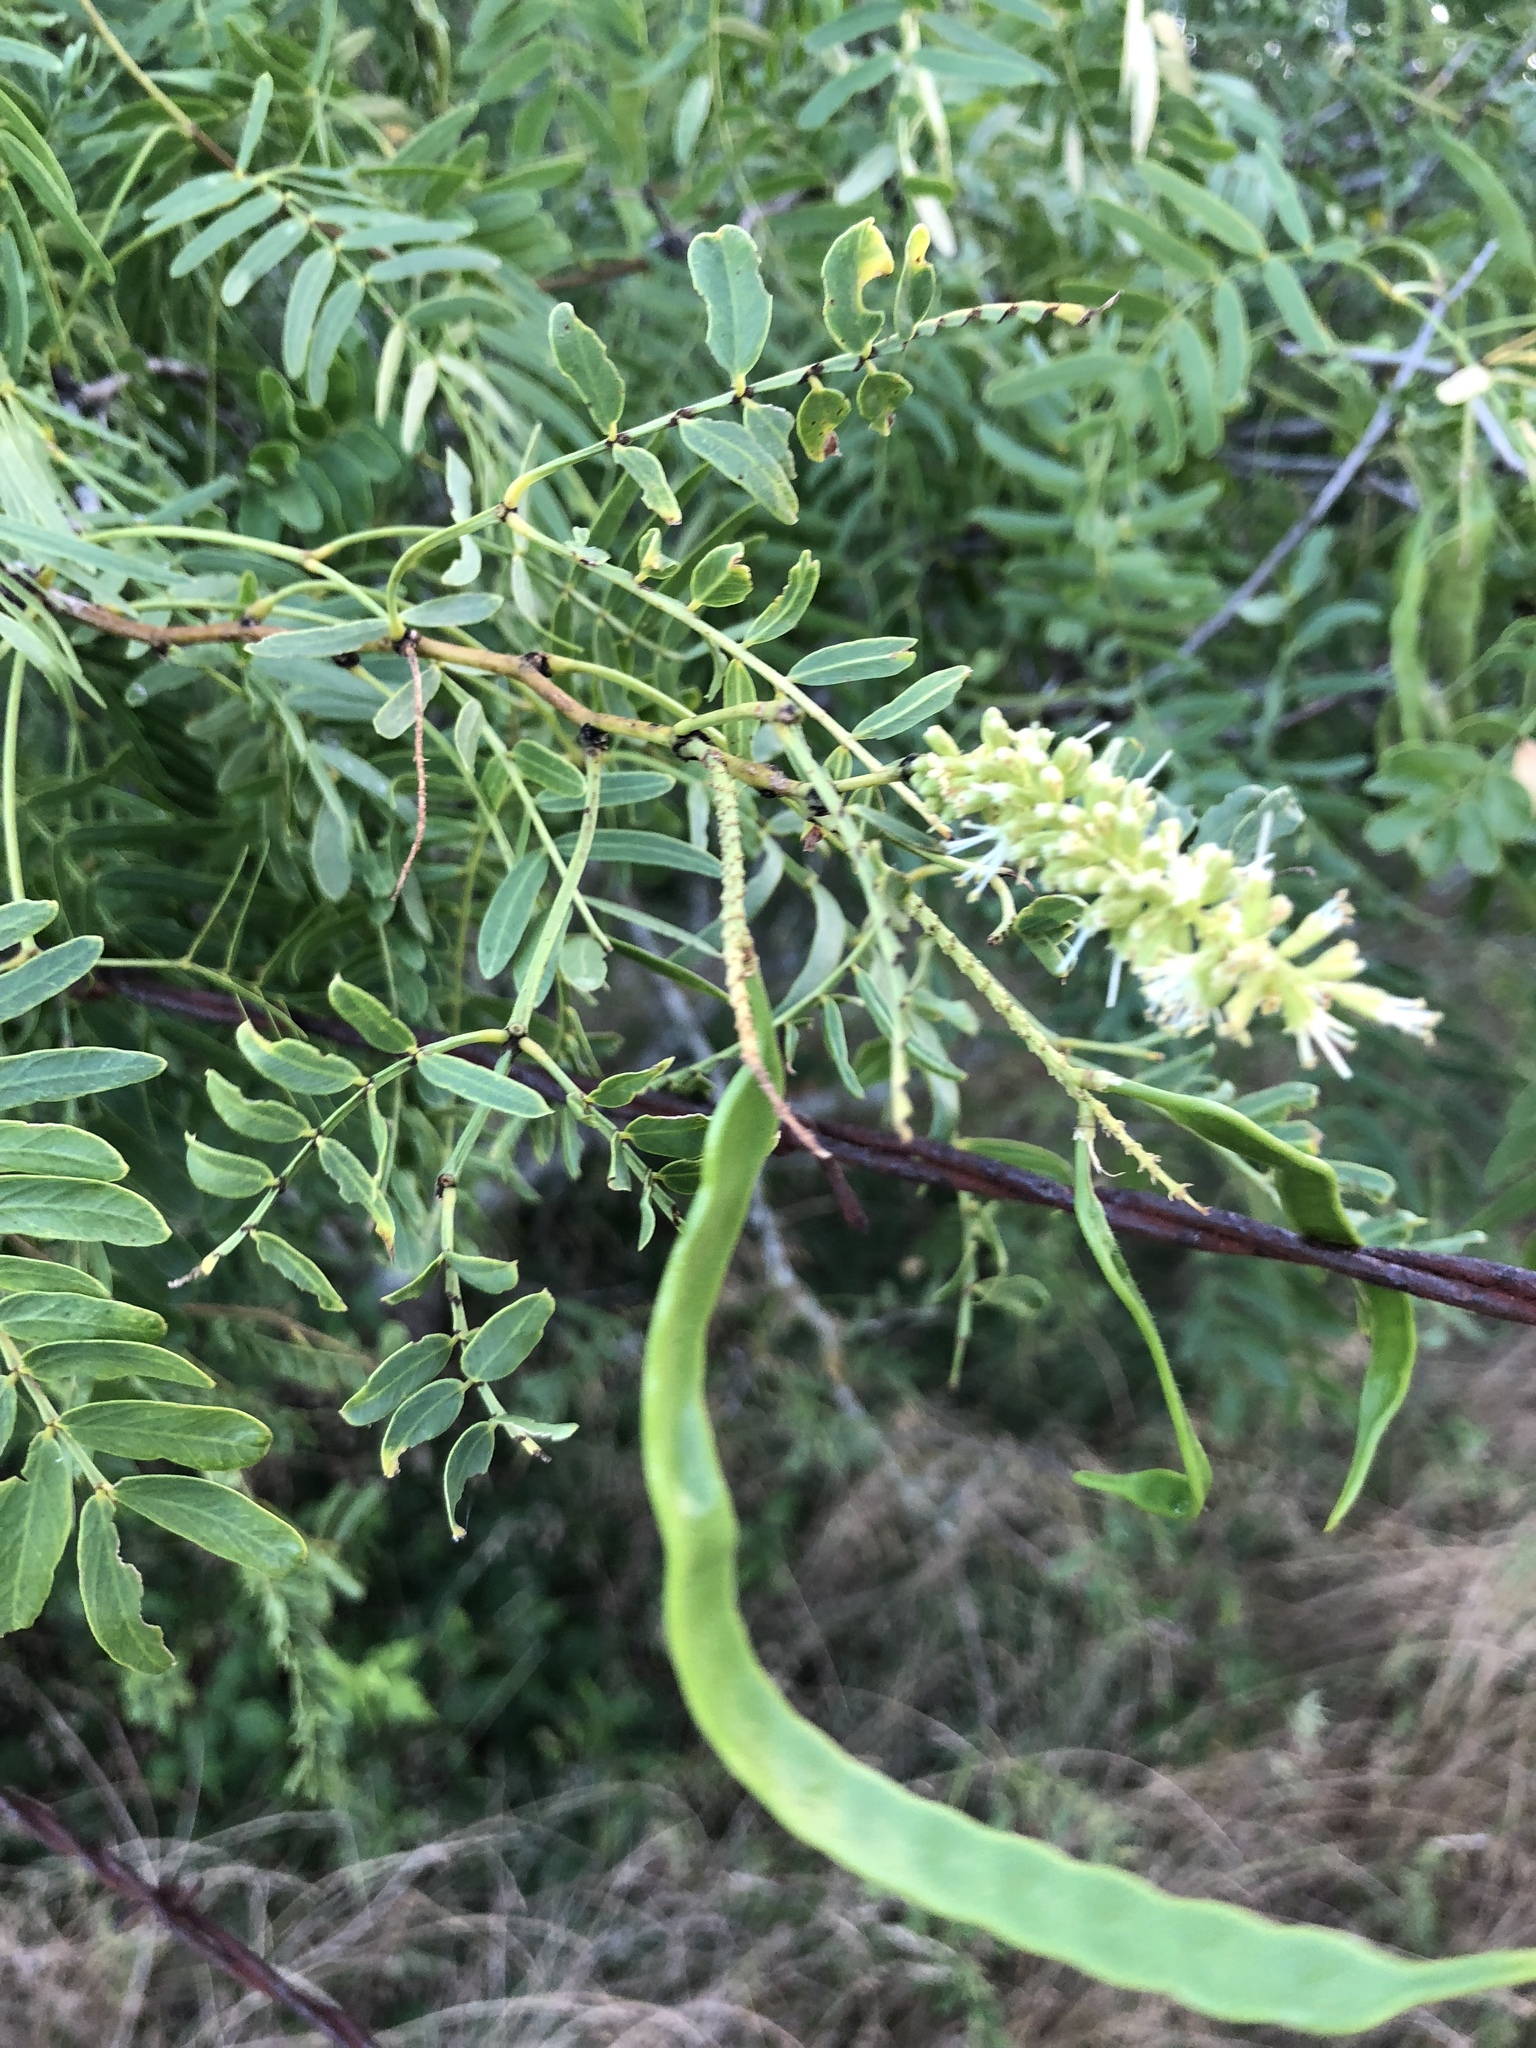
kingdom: Plantae
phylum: Tracheophyta
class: Magnoliopsida
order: Fabales
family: Fabaceae
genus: Prosopis
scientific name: Prosopis glandulosa
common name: Honey mesquite
